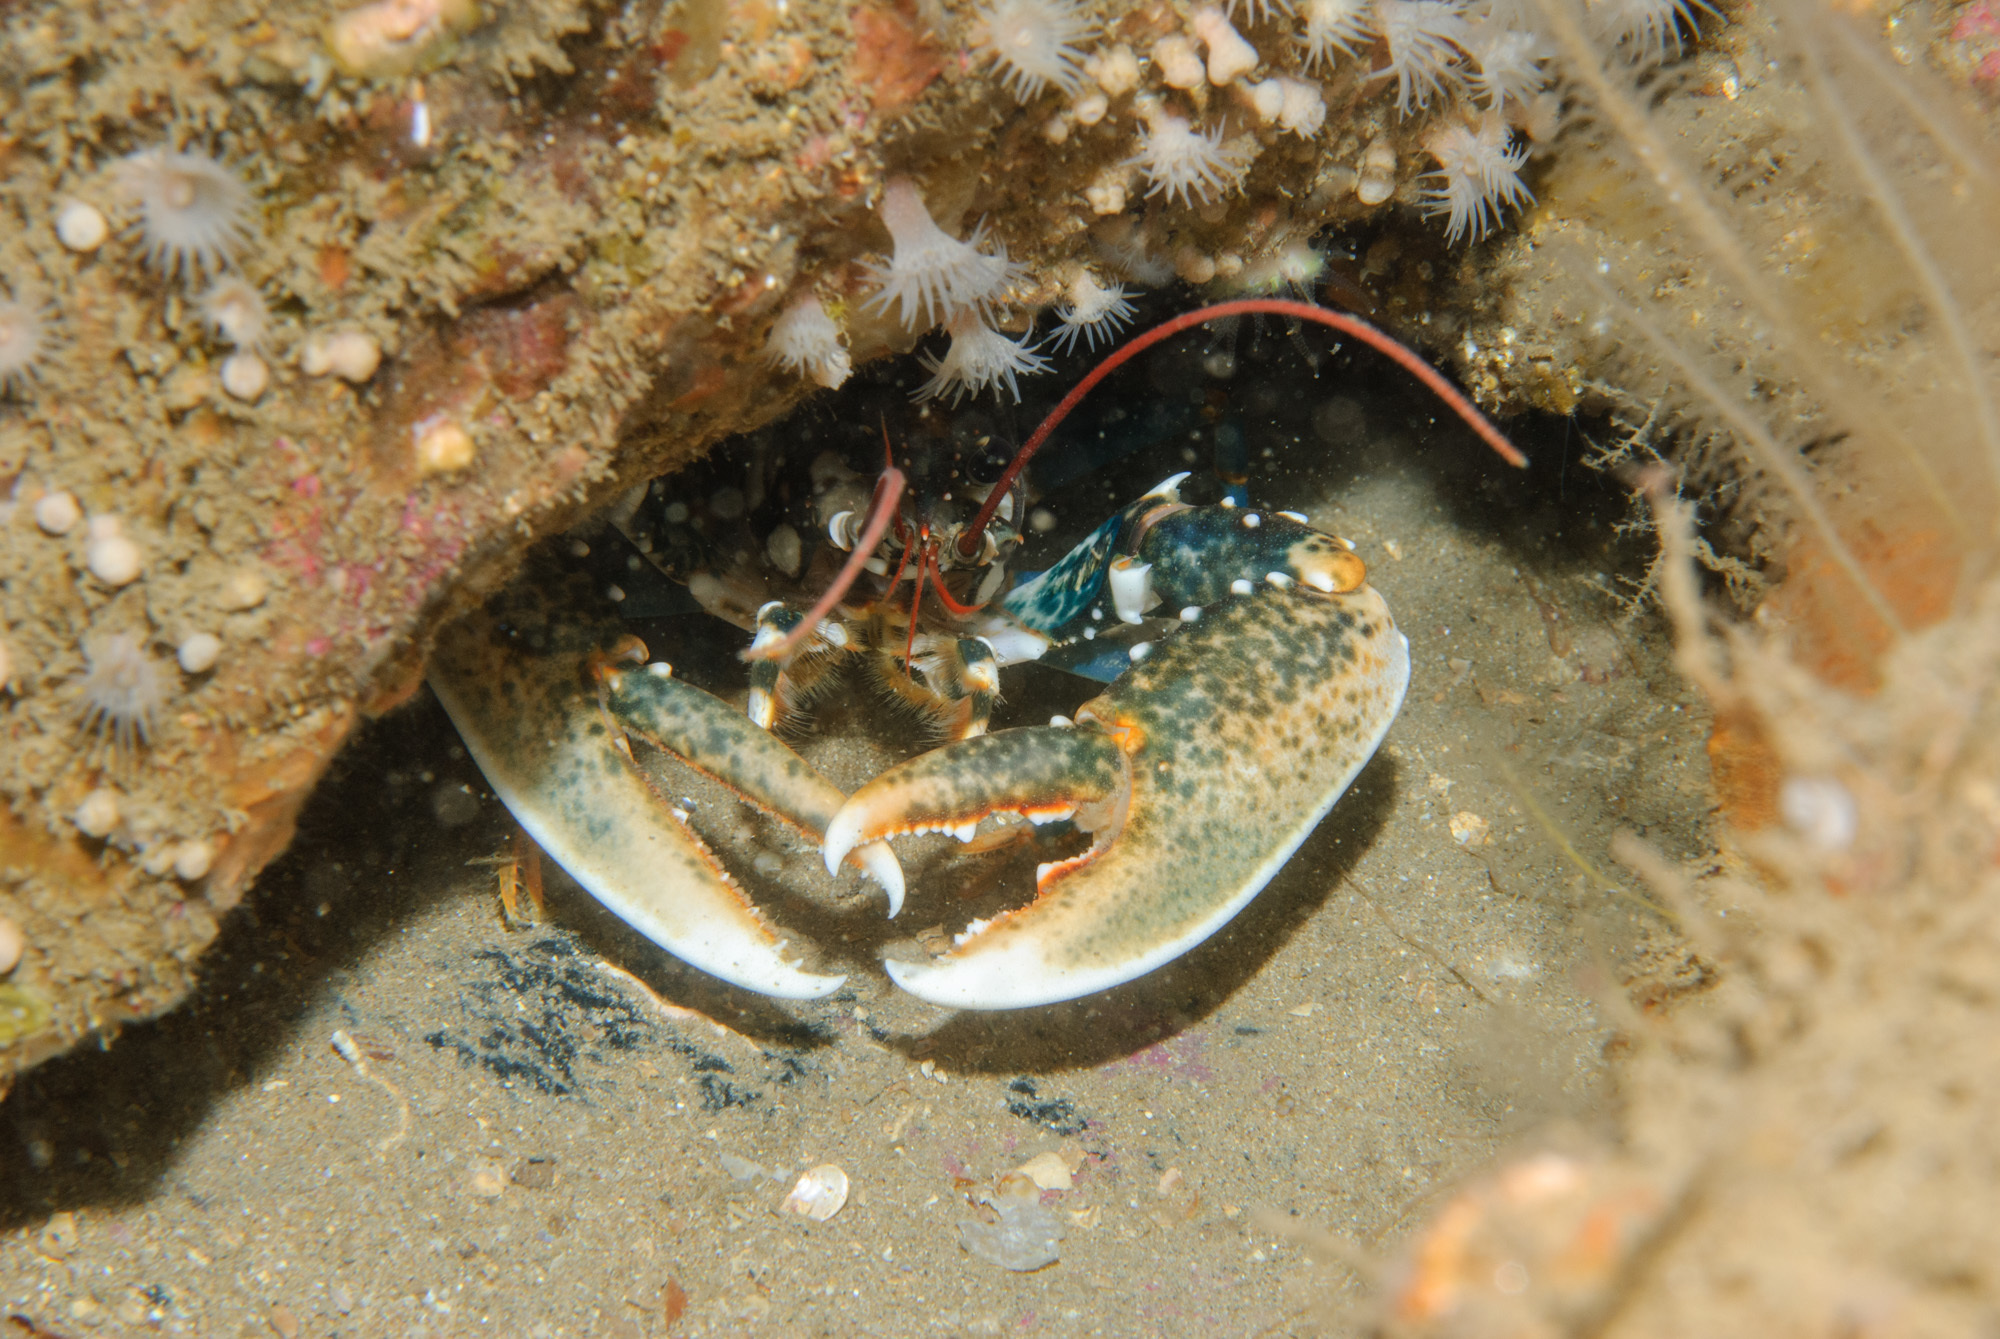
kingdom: Animalia
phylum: Arthropoda
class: Malacostraca
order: Decapoda
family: Nephropidae
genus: Homarus
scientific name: Homarus gammarus
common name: European lobster
